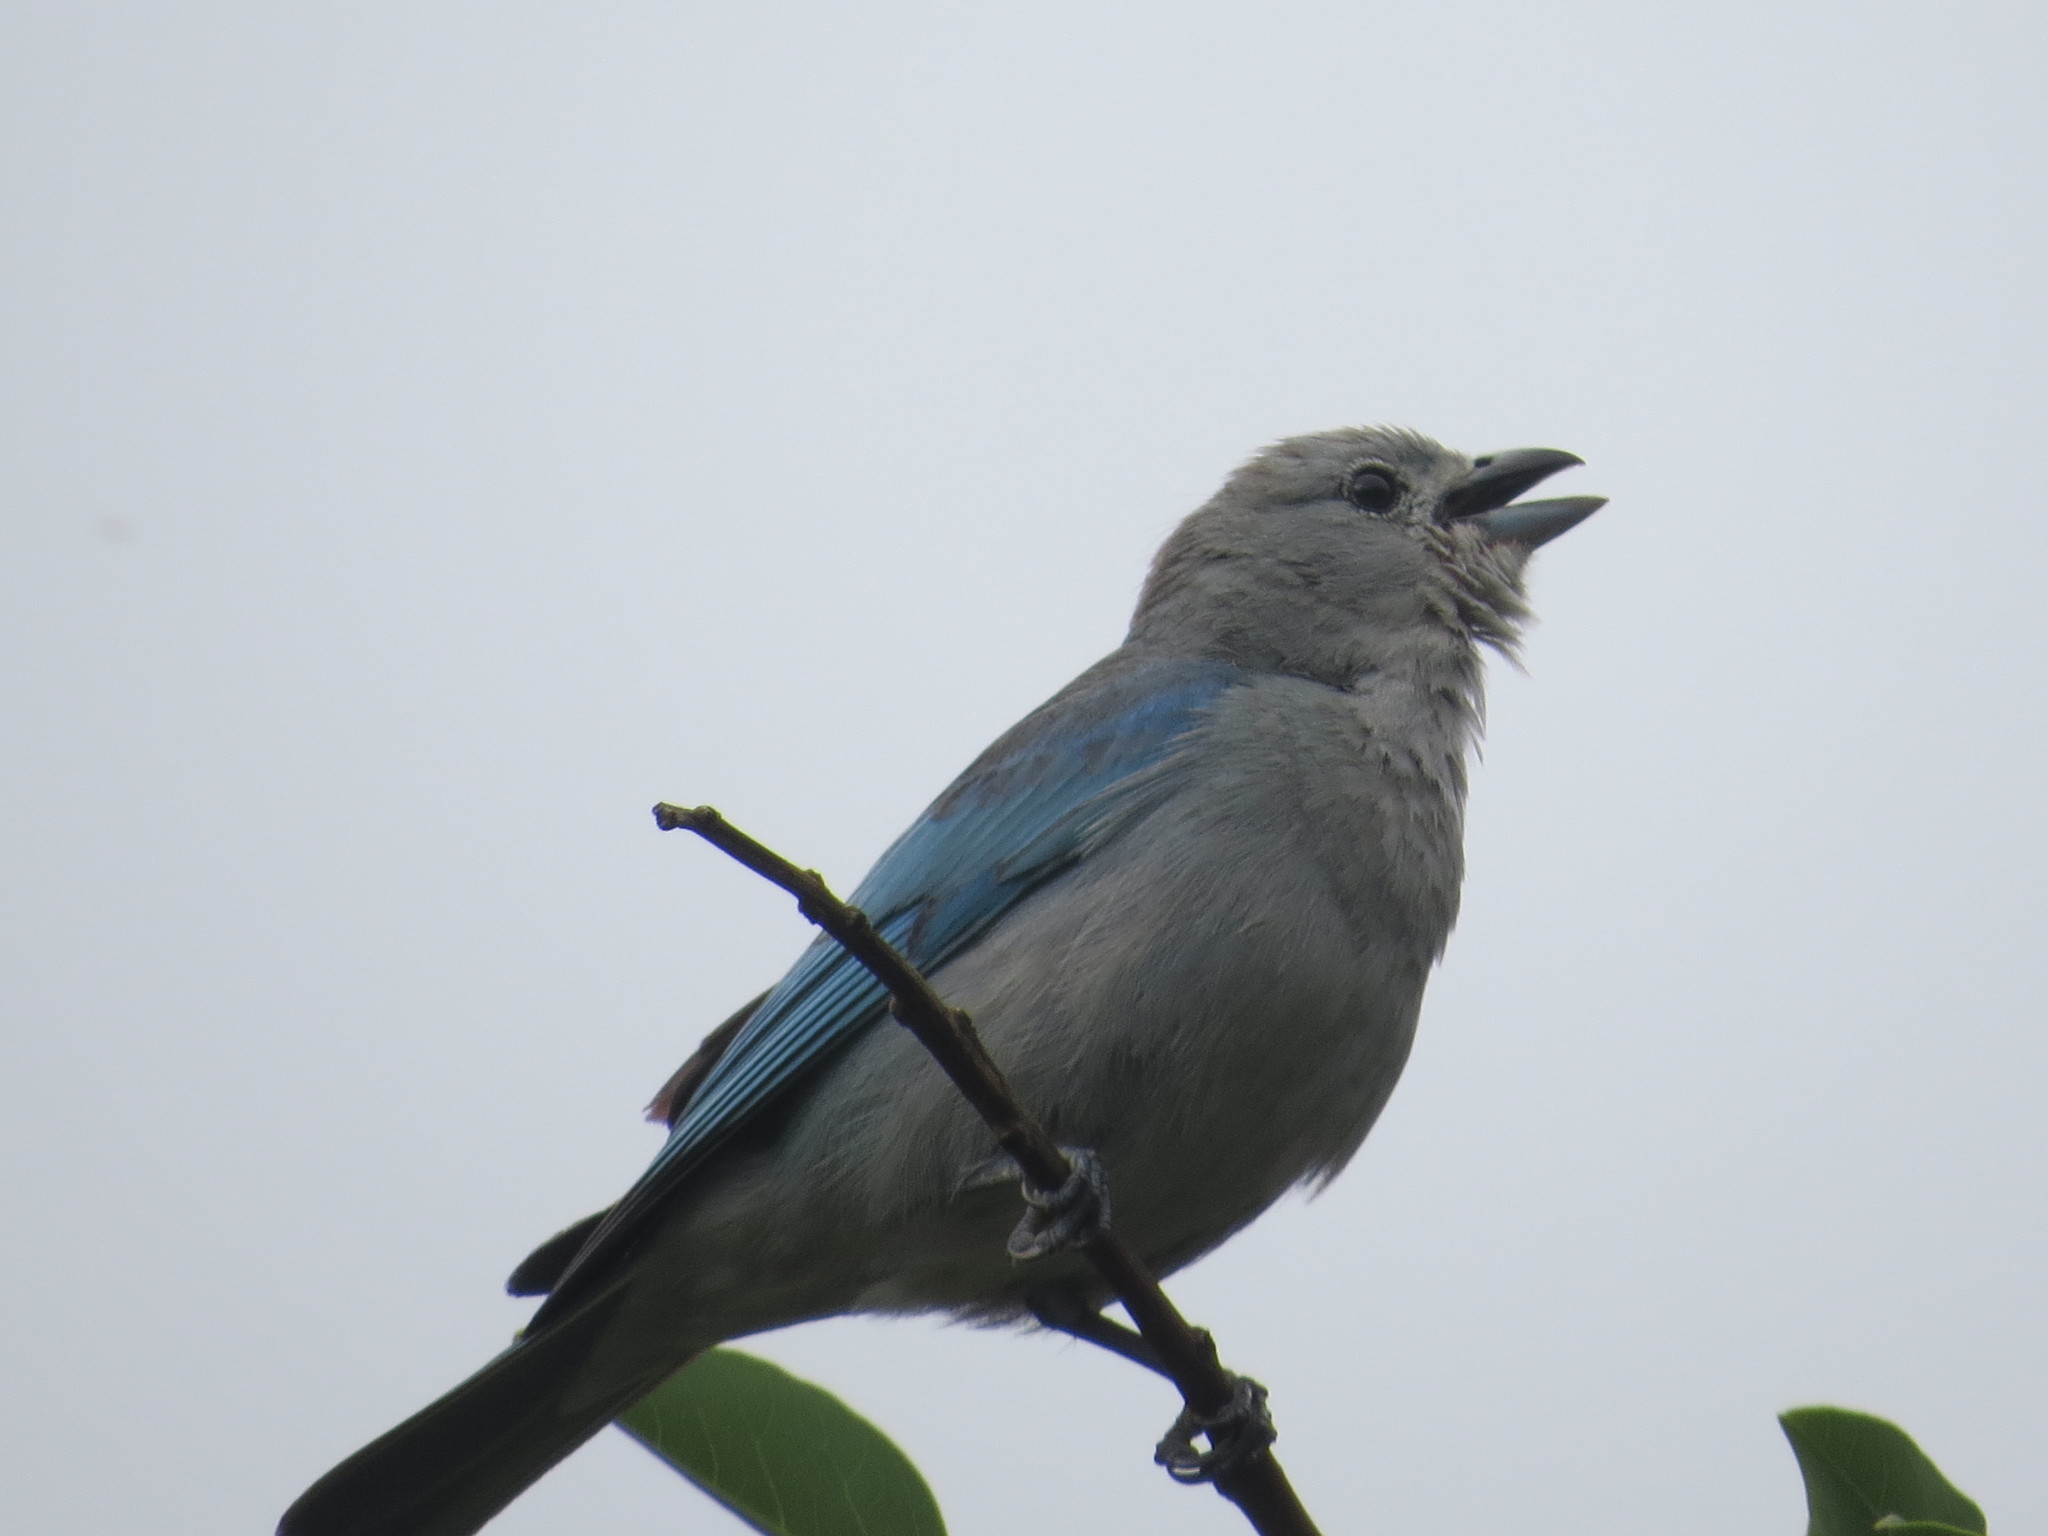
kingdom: Animalia
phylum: Chordata
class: Aves
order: Passeriformes
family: Thraupidae
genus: Thraupis
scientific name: Thraupis sayaca
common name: Sayaca tanager
